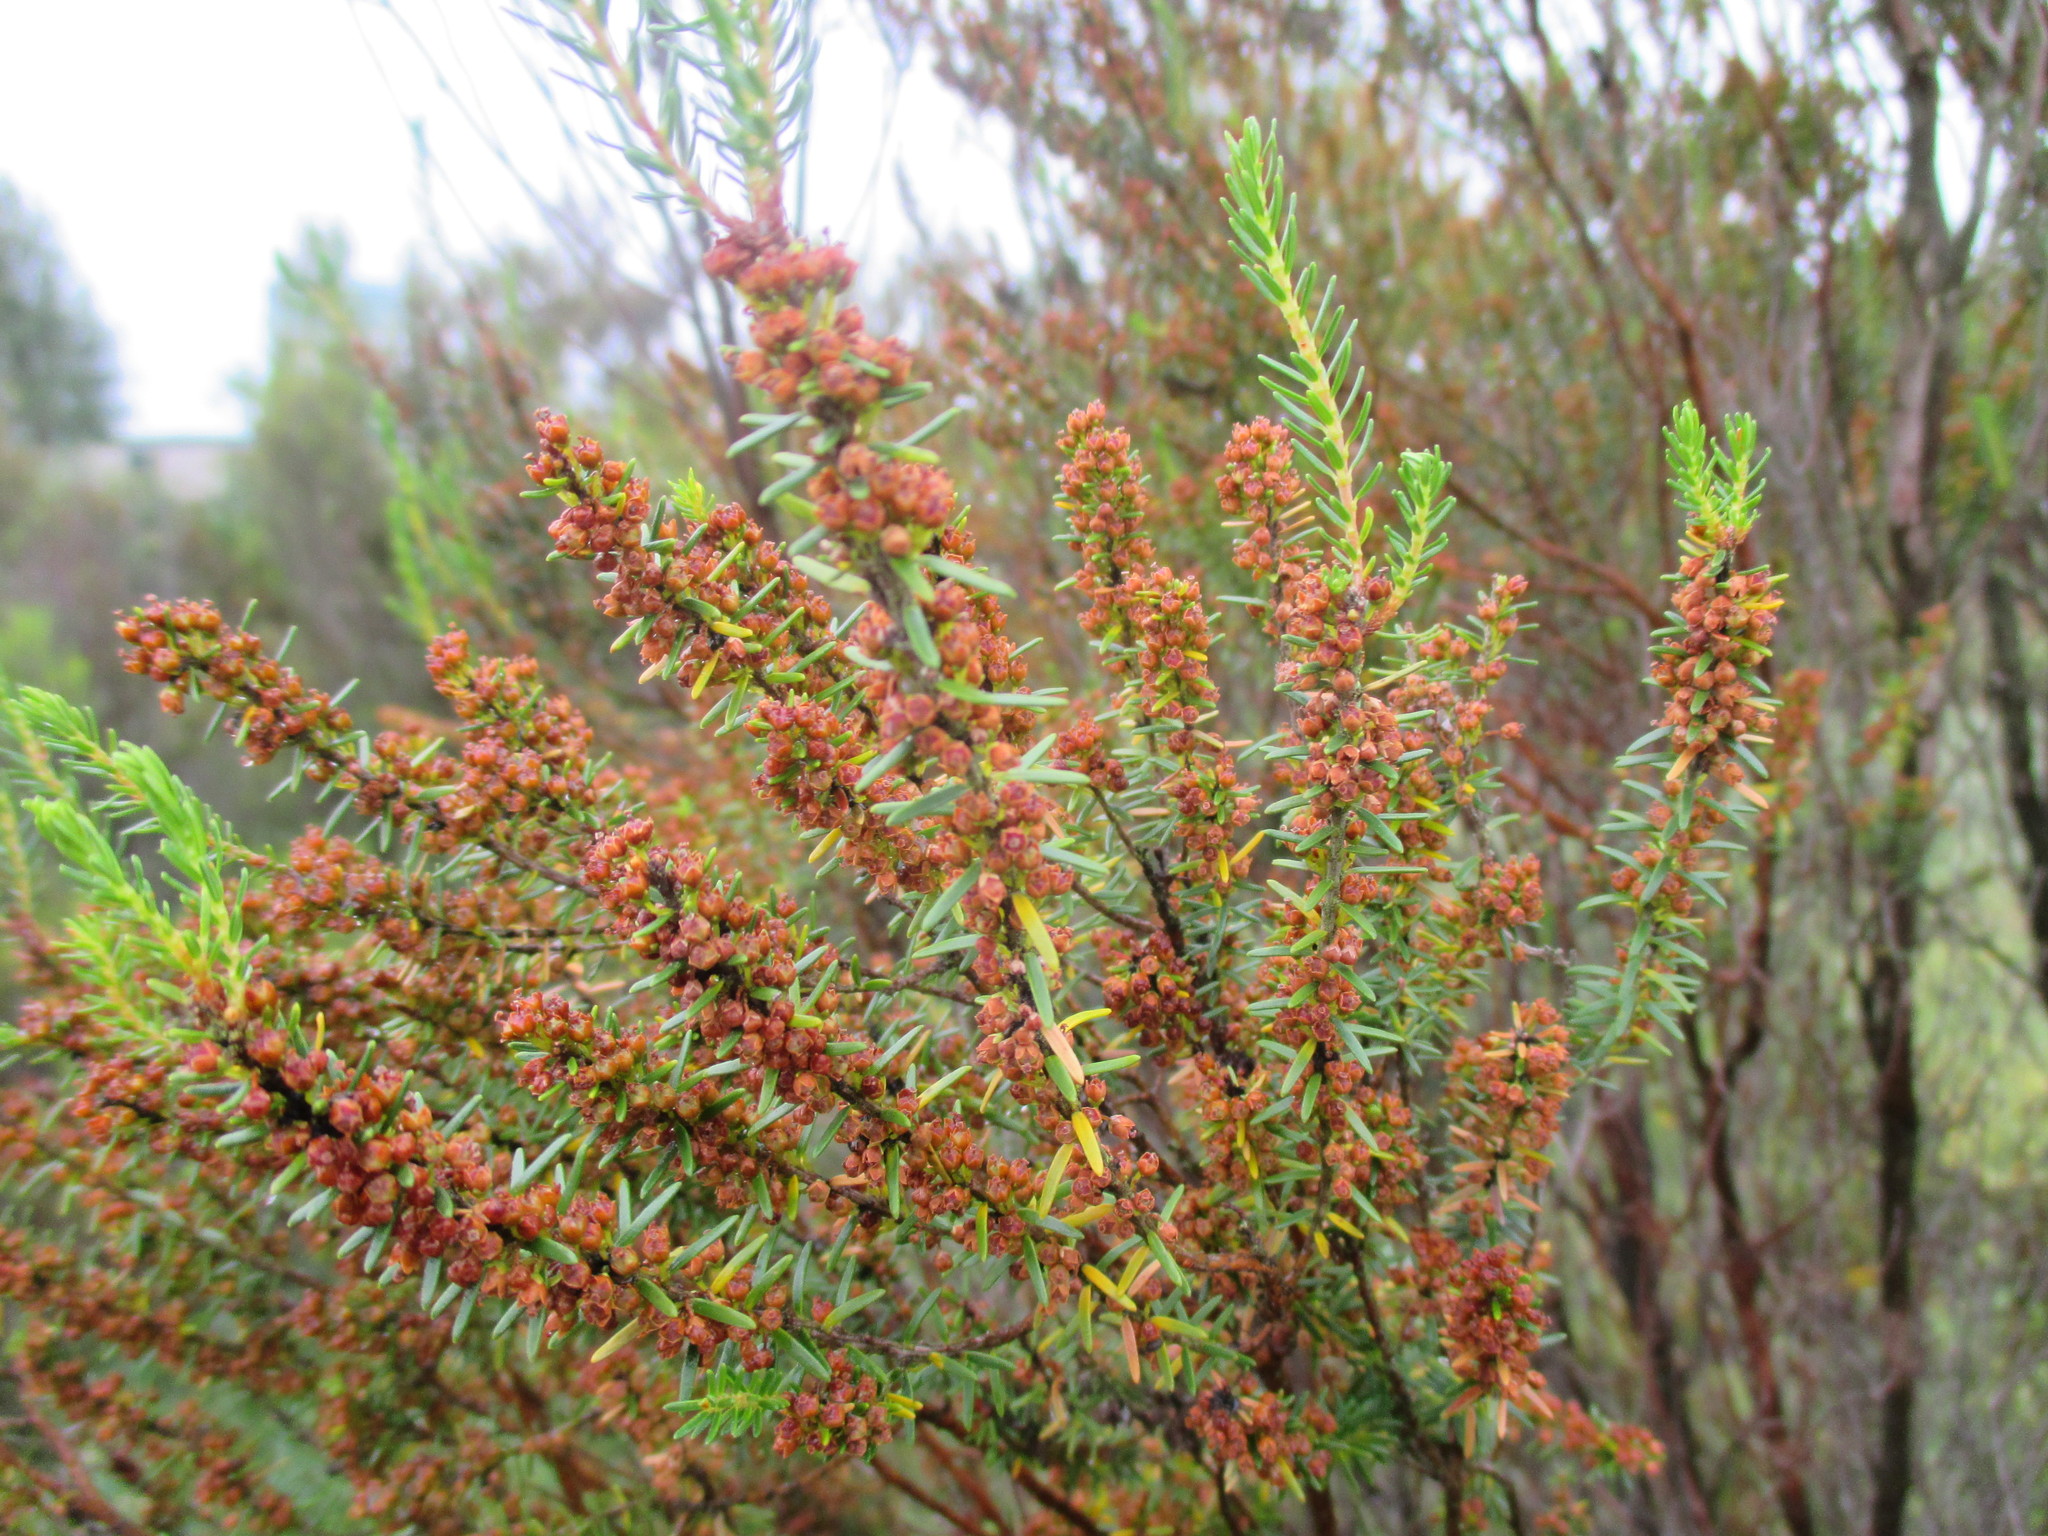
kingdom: Plantae
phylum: Tracheophyta
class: Magnoliopsida
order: Ericales
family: Ericaceae
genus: Erica
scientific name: Erica scoparia
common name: Green heather
